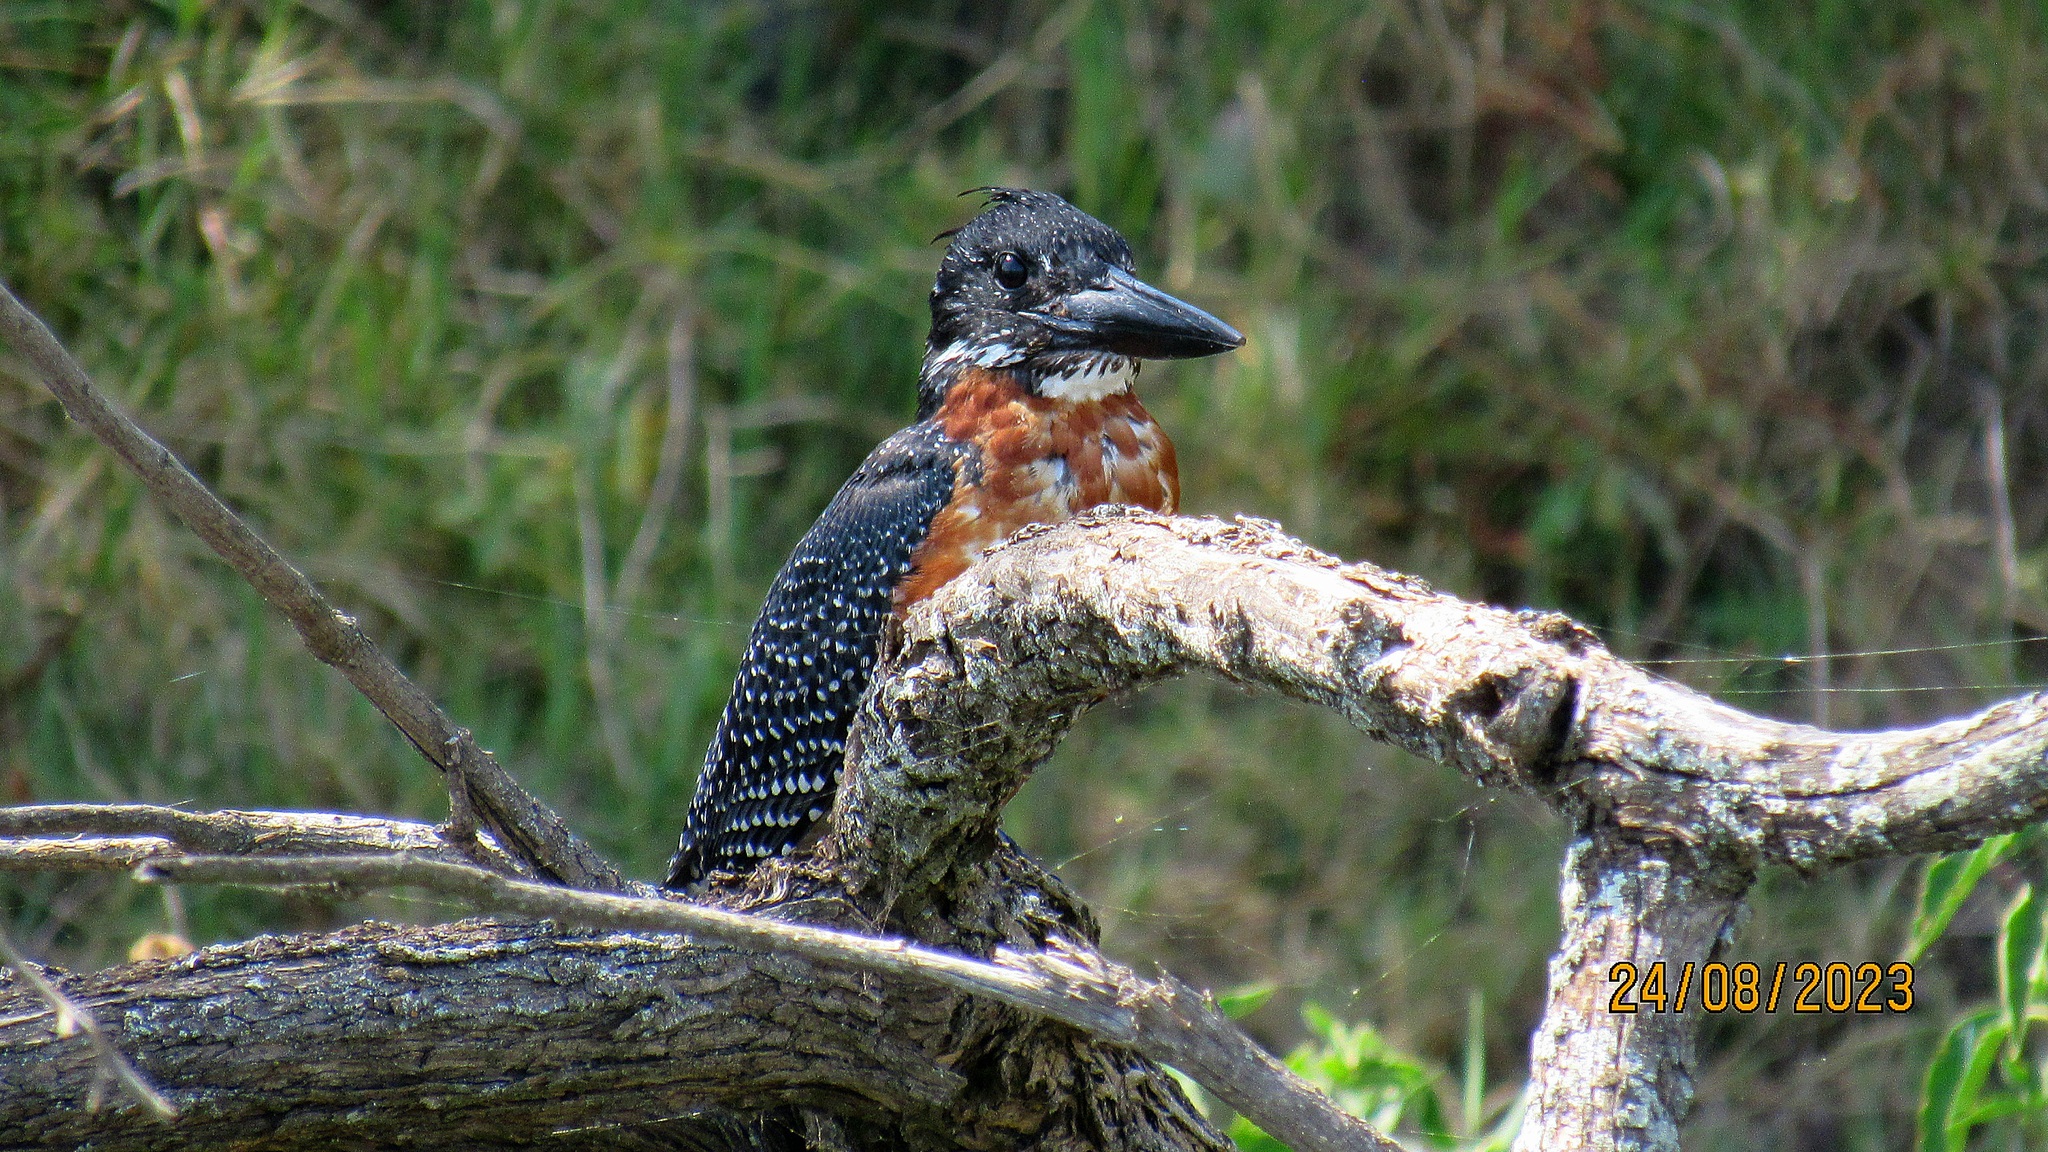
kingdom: Animalia
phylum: Chordata
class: Aves
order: Coraciiformes
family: Alcedinidae
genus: Megaceryle
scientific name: Megaceryle maxima
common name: Giant kingfisher
